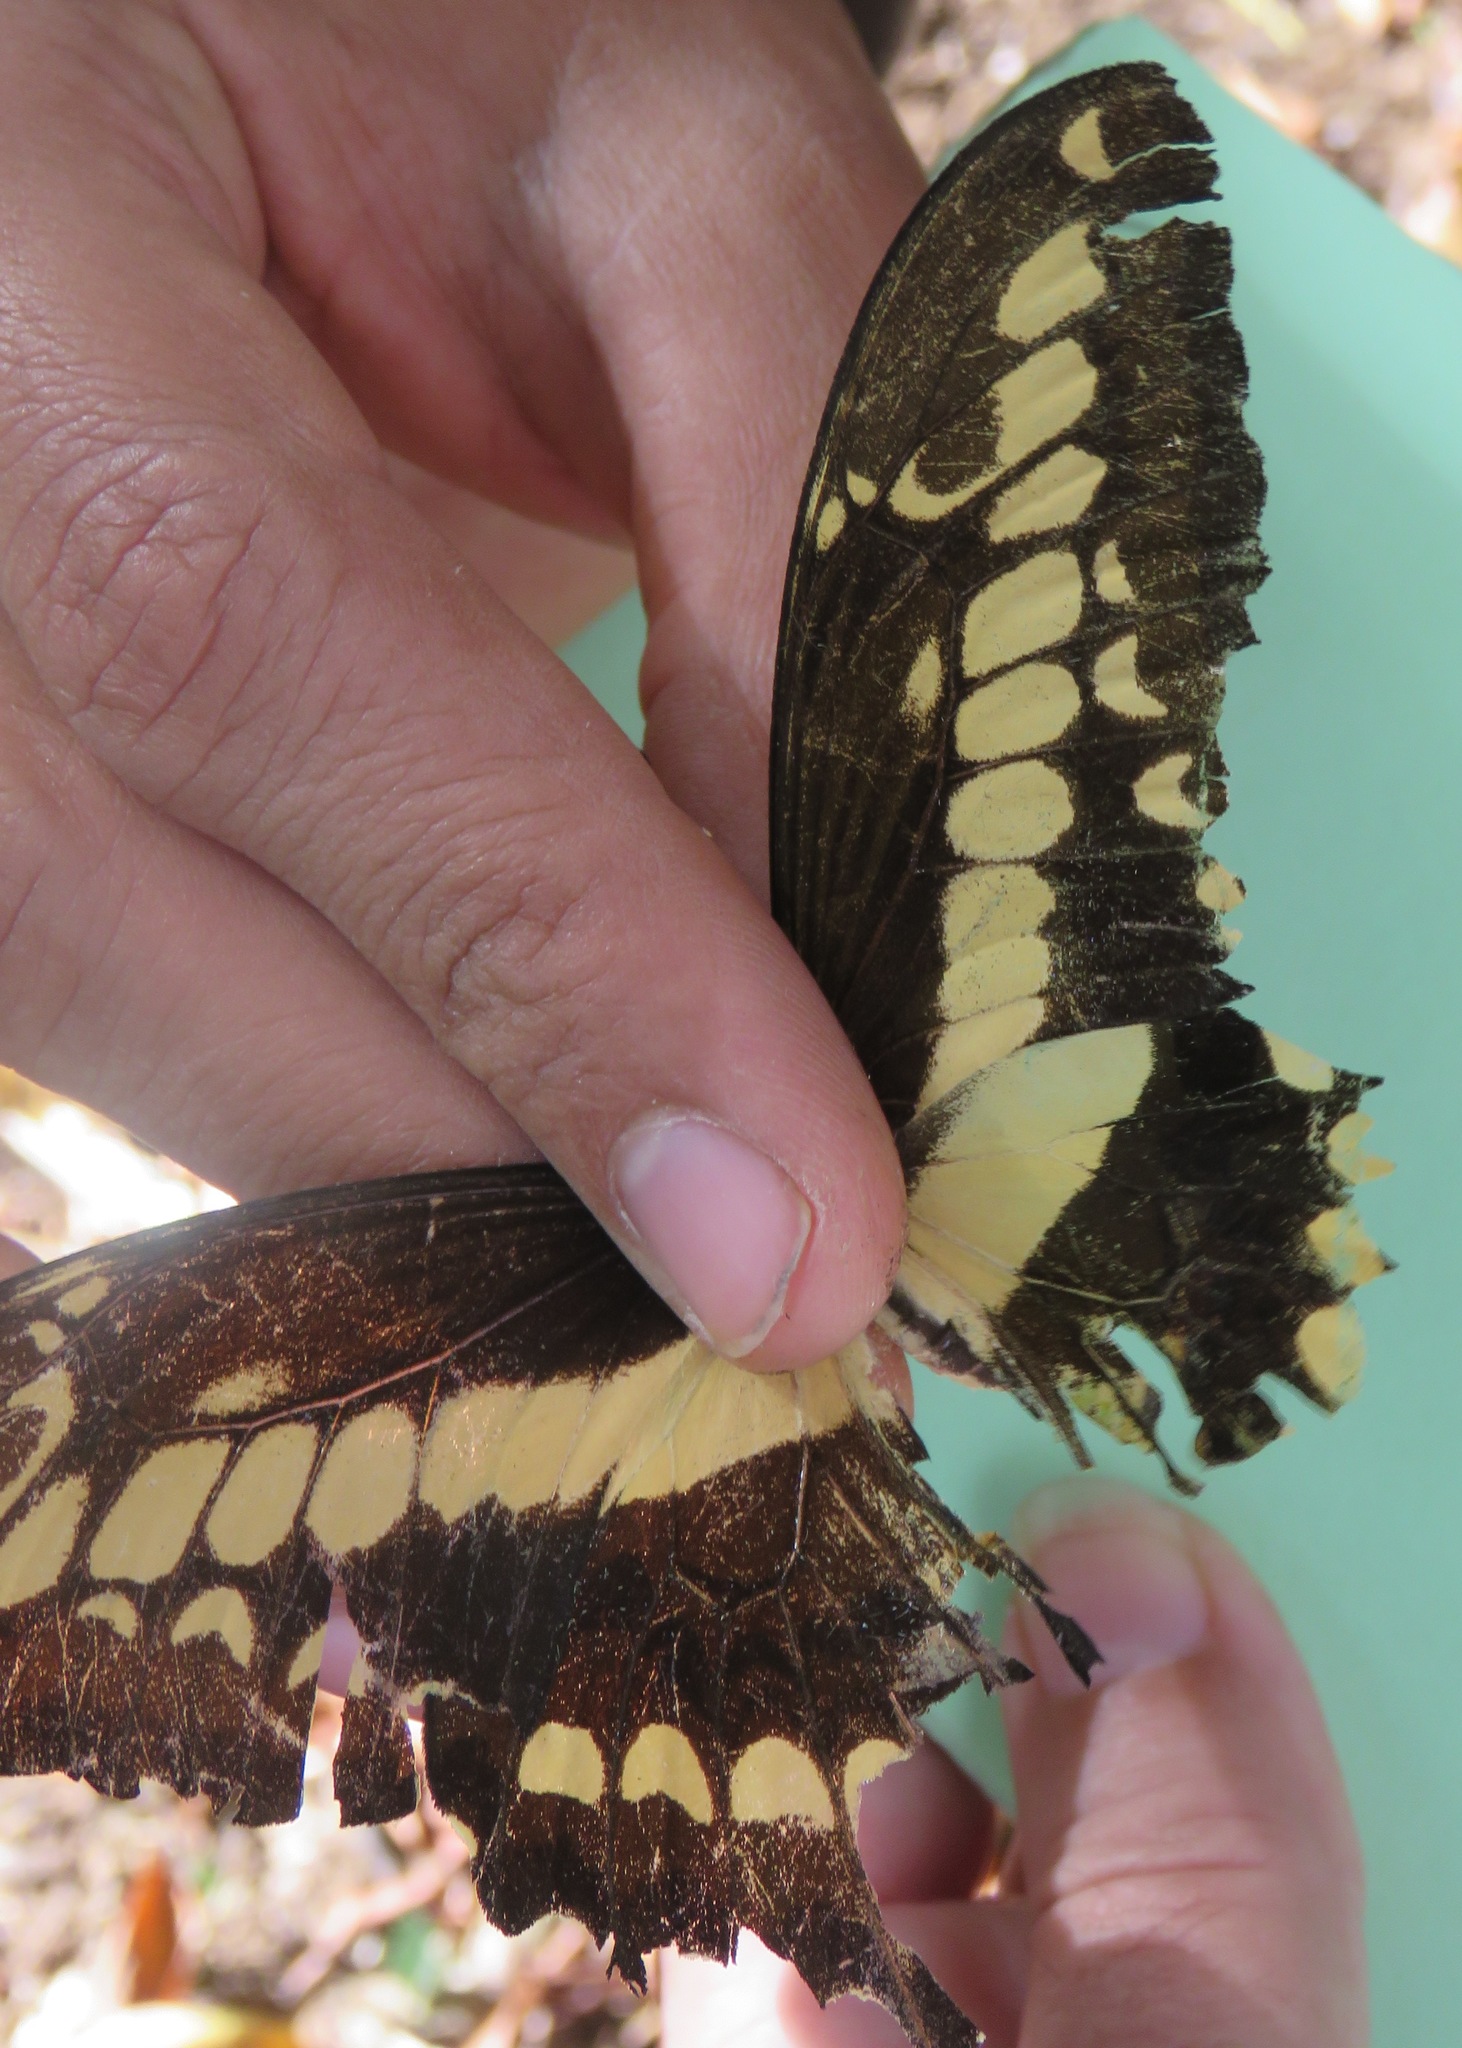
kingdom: Animalia
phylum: Arthropoda
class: Insecta
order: Lepidoptera
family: Papilionidae
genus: Papilio
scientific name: Papilio thoas
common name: King swallowtail
